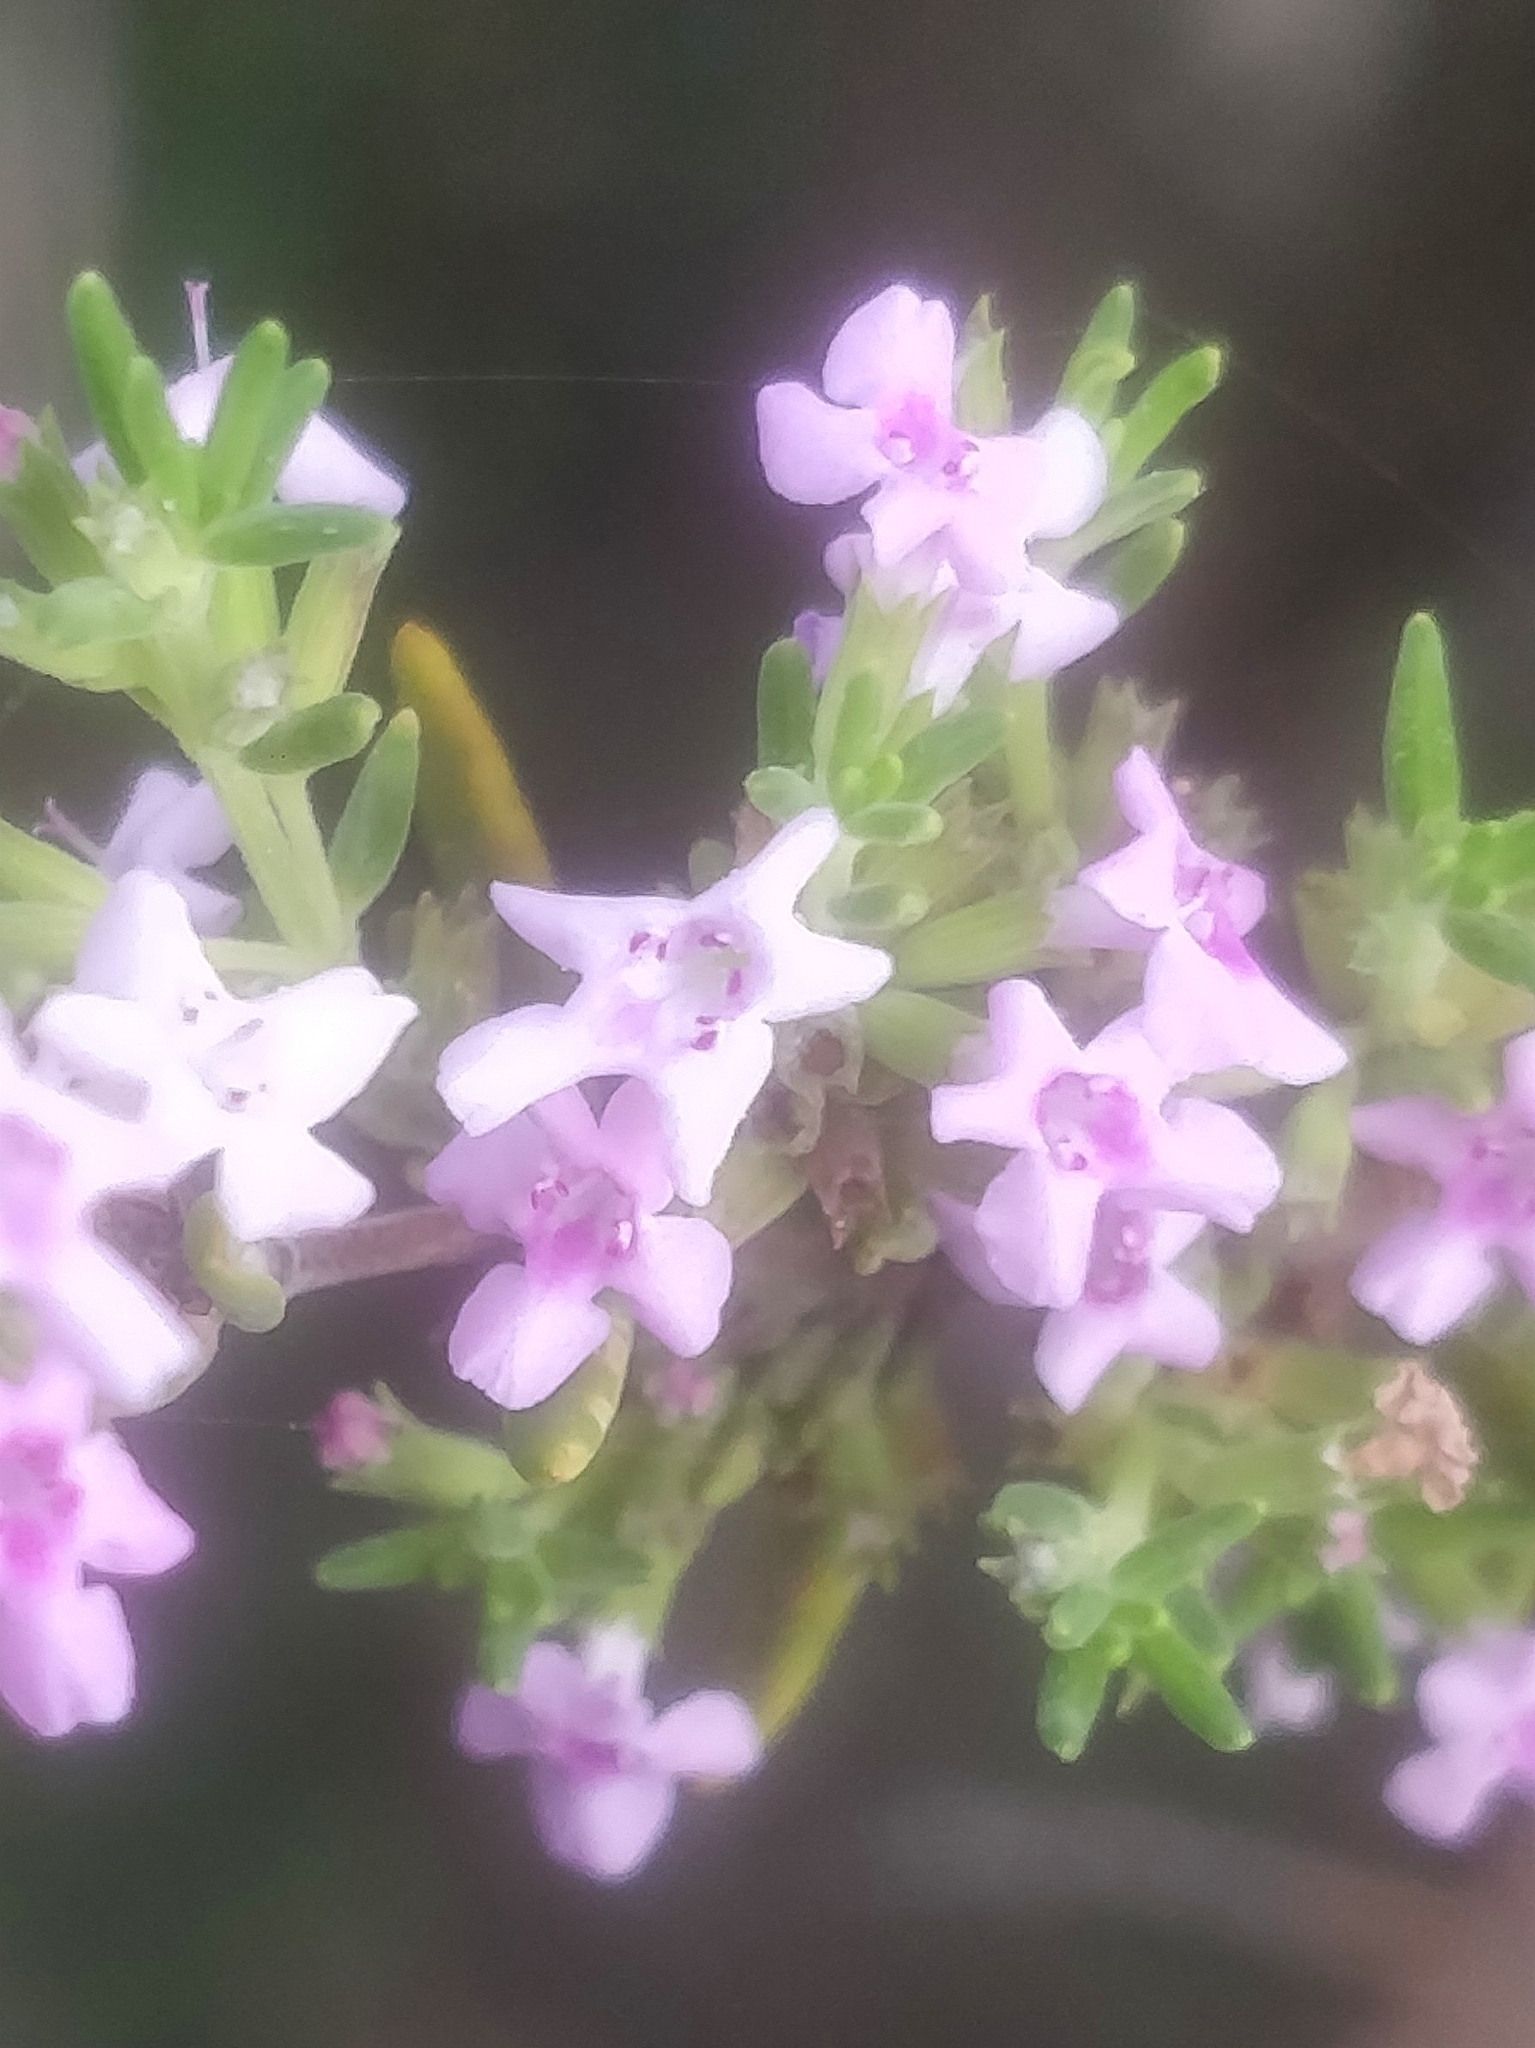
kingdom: Plantae
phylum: Tracheophyta
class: Magnoliopsida
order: Lamiales
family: Lamiaceae
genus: Micromeria
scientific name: Micromeria maderensis
